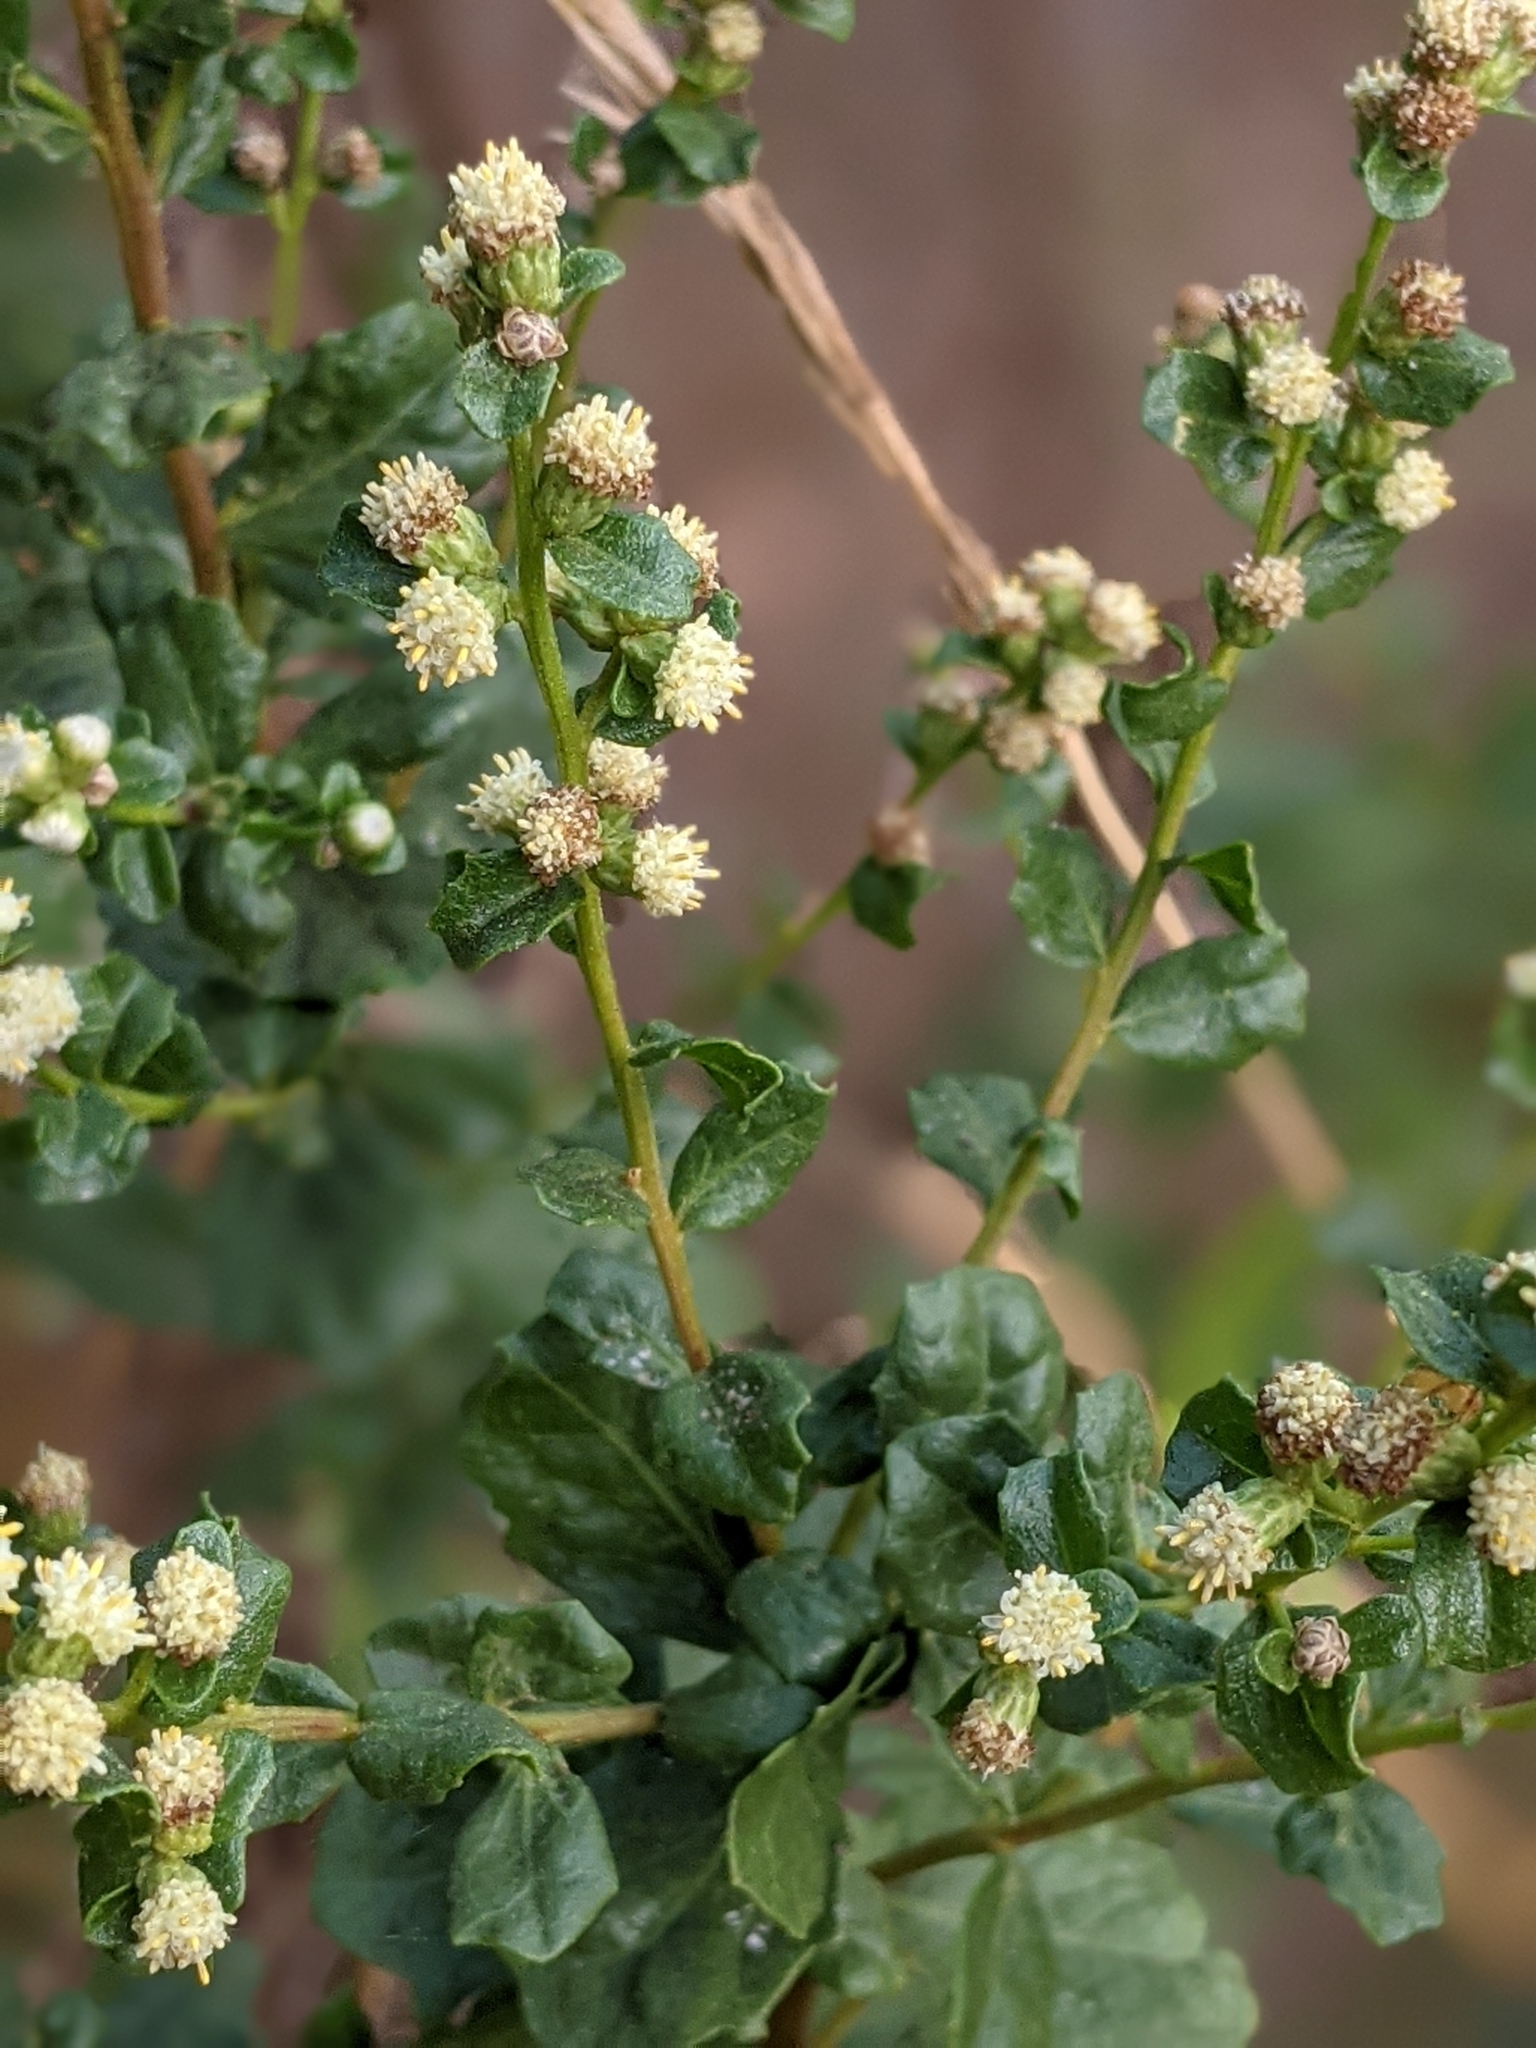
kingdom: Plantae
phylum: Tracheophyta
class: Magnoliopsida
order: Asterales
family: Asteraceae
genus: Baccharis
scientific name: Baccharis pilularis
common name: Coyotebrush
